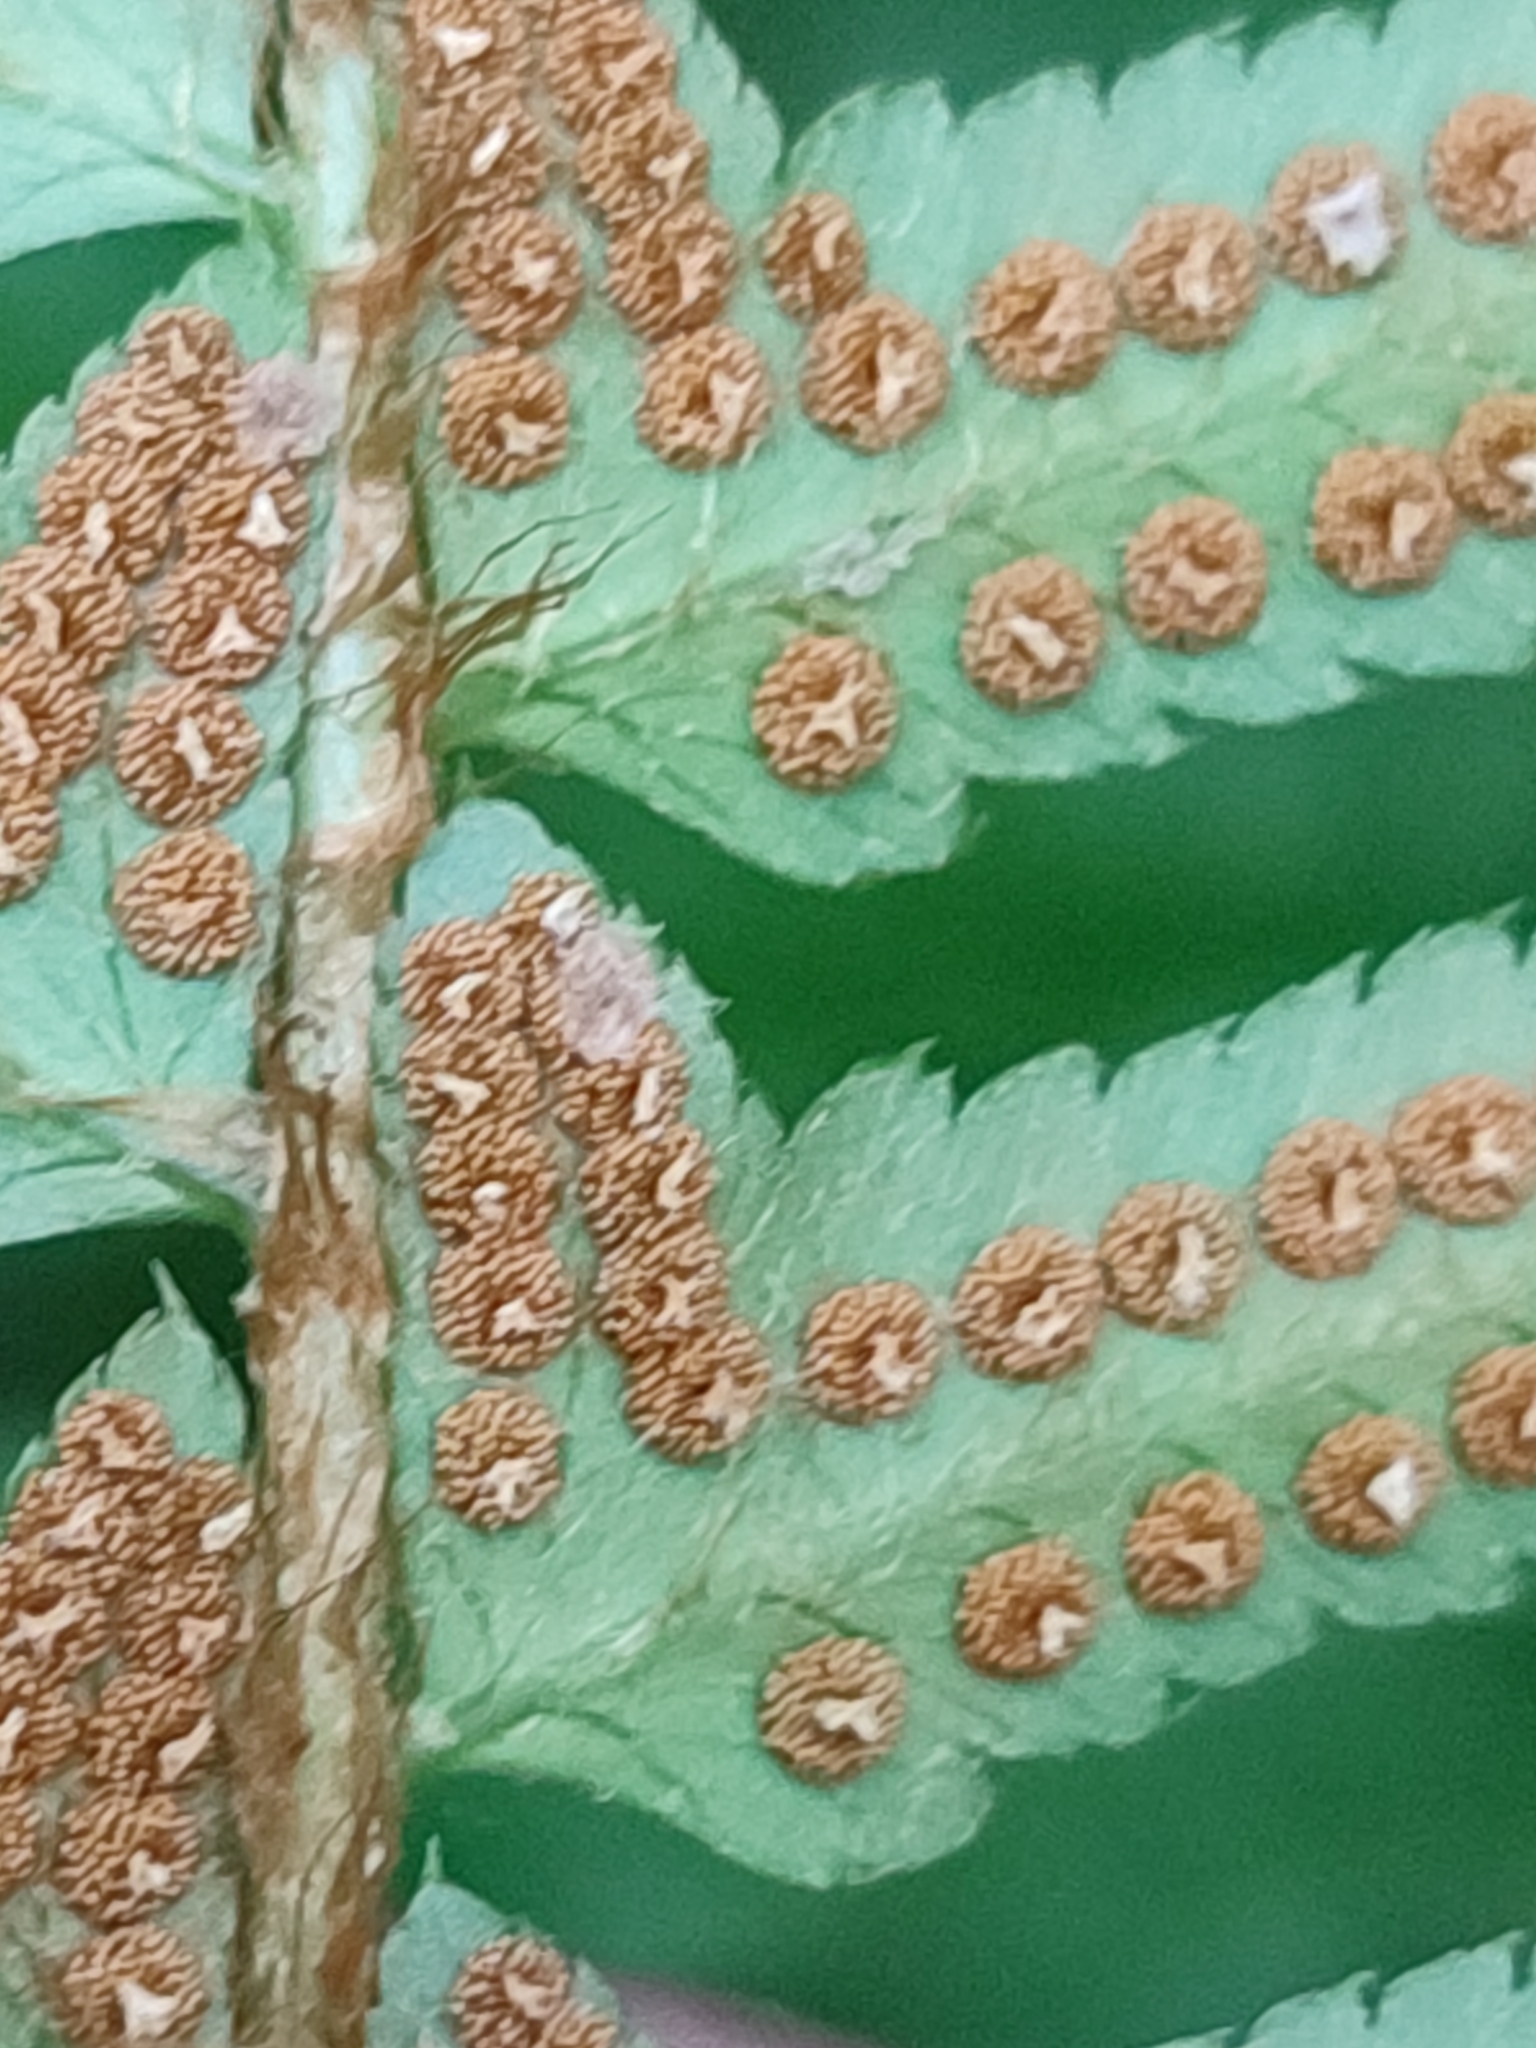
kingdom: Plantae
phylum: Tracheophyta
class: Polypodiopsida
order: Polypodiales
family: Dryopteridaceae
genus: Polystichum
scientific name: Polystichum munitum
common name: Western sword-fern
